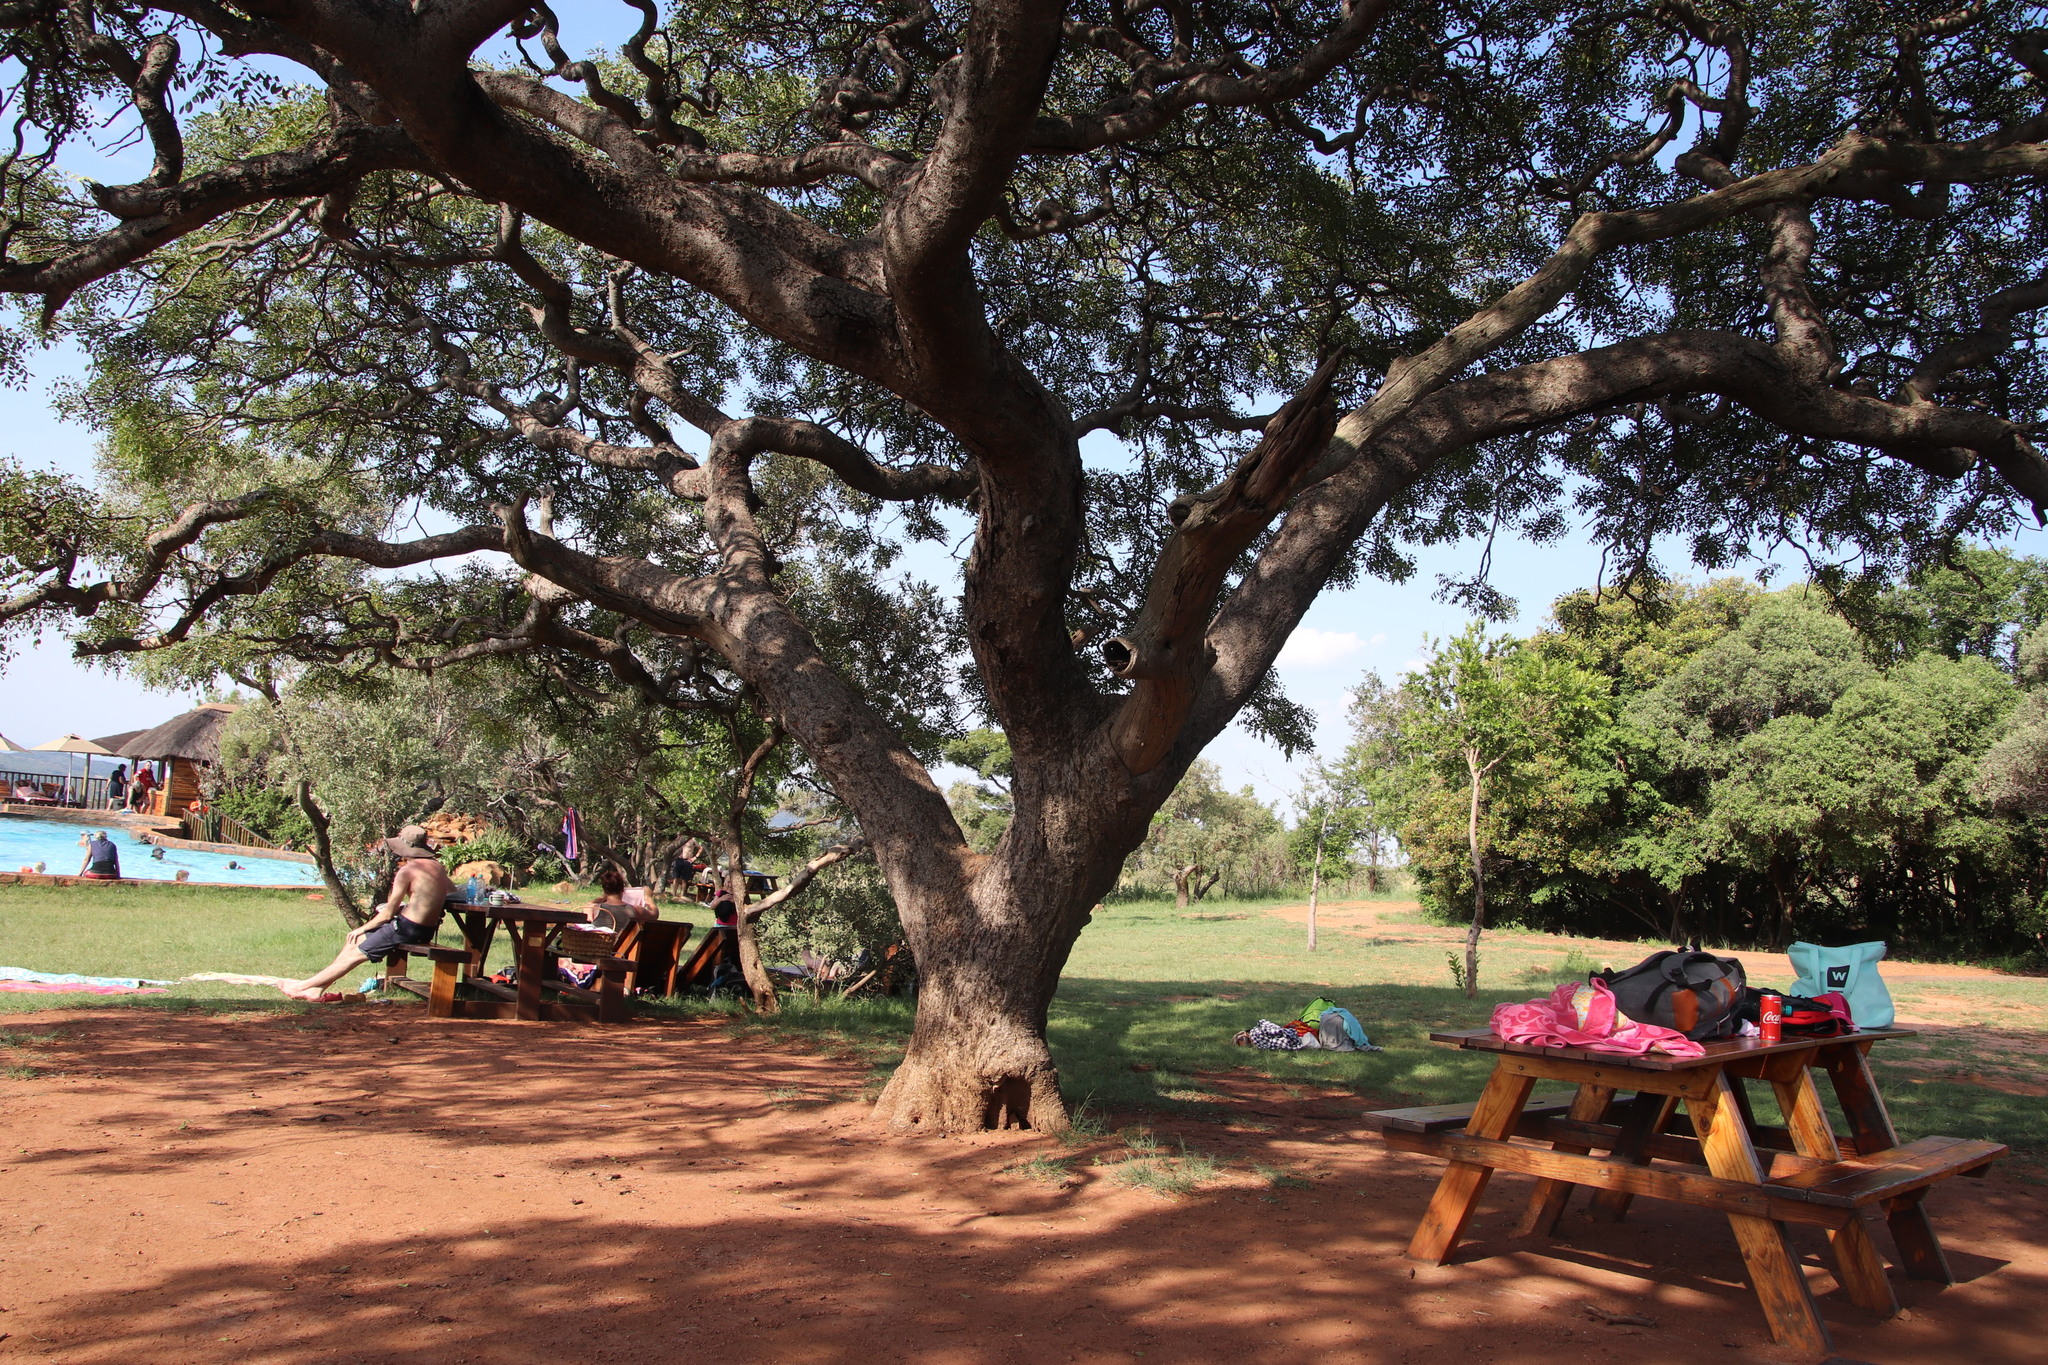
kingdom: Plantae
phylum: Tracheophyta
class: Magnoliopsida
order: Fabales
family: Fabaceae
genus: Burkea
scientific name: Burkea africana
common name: Mkalati tree
